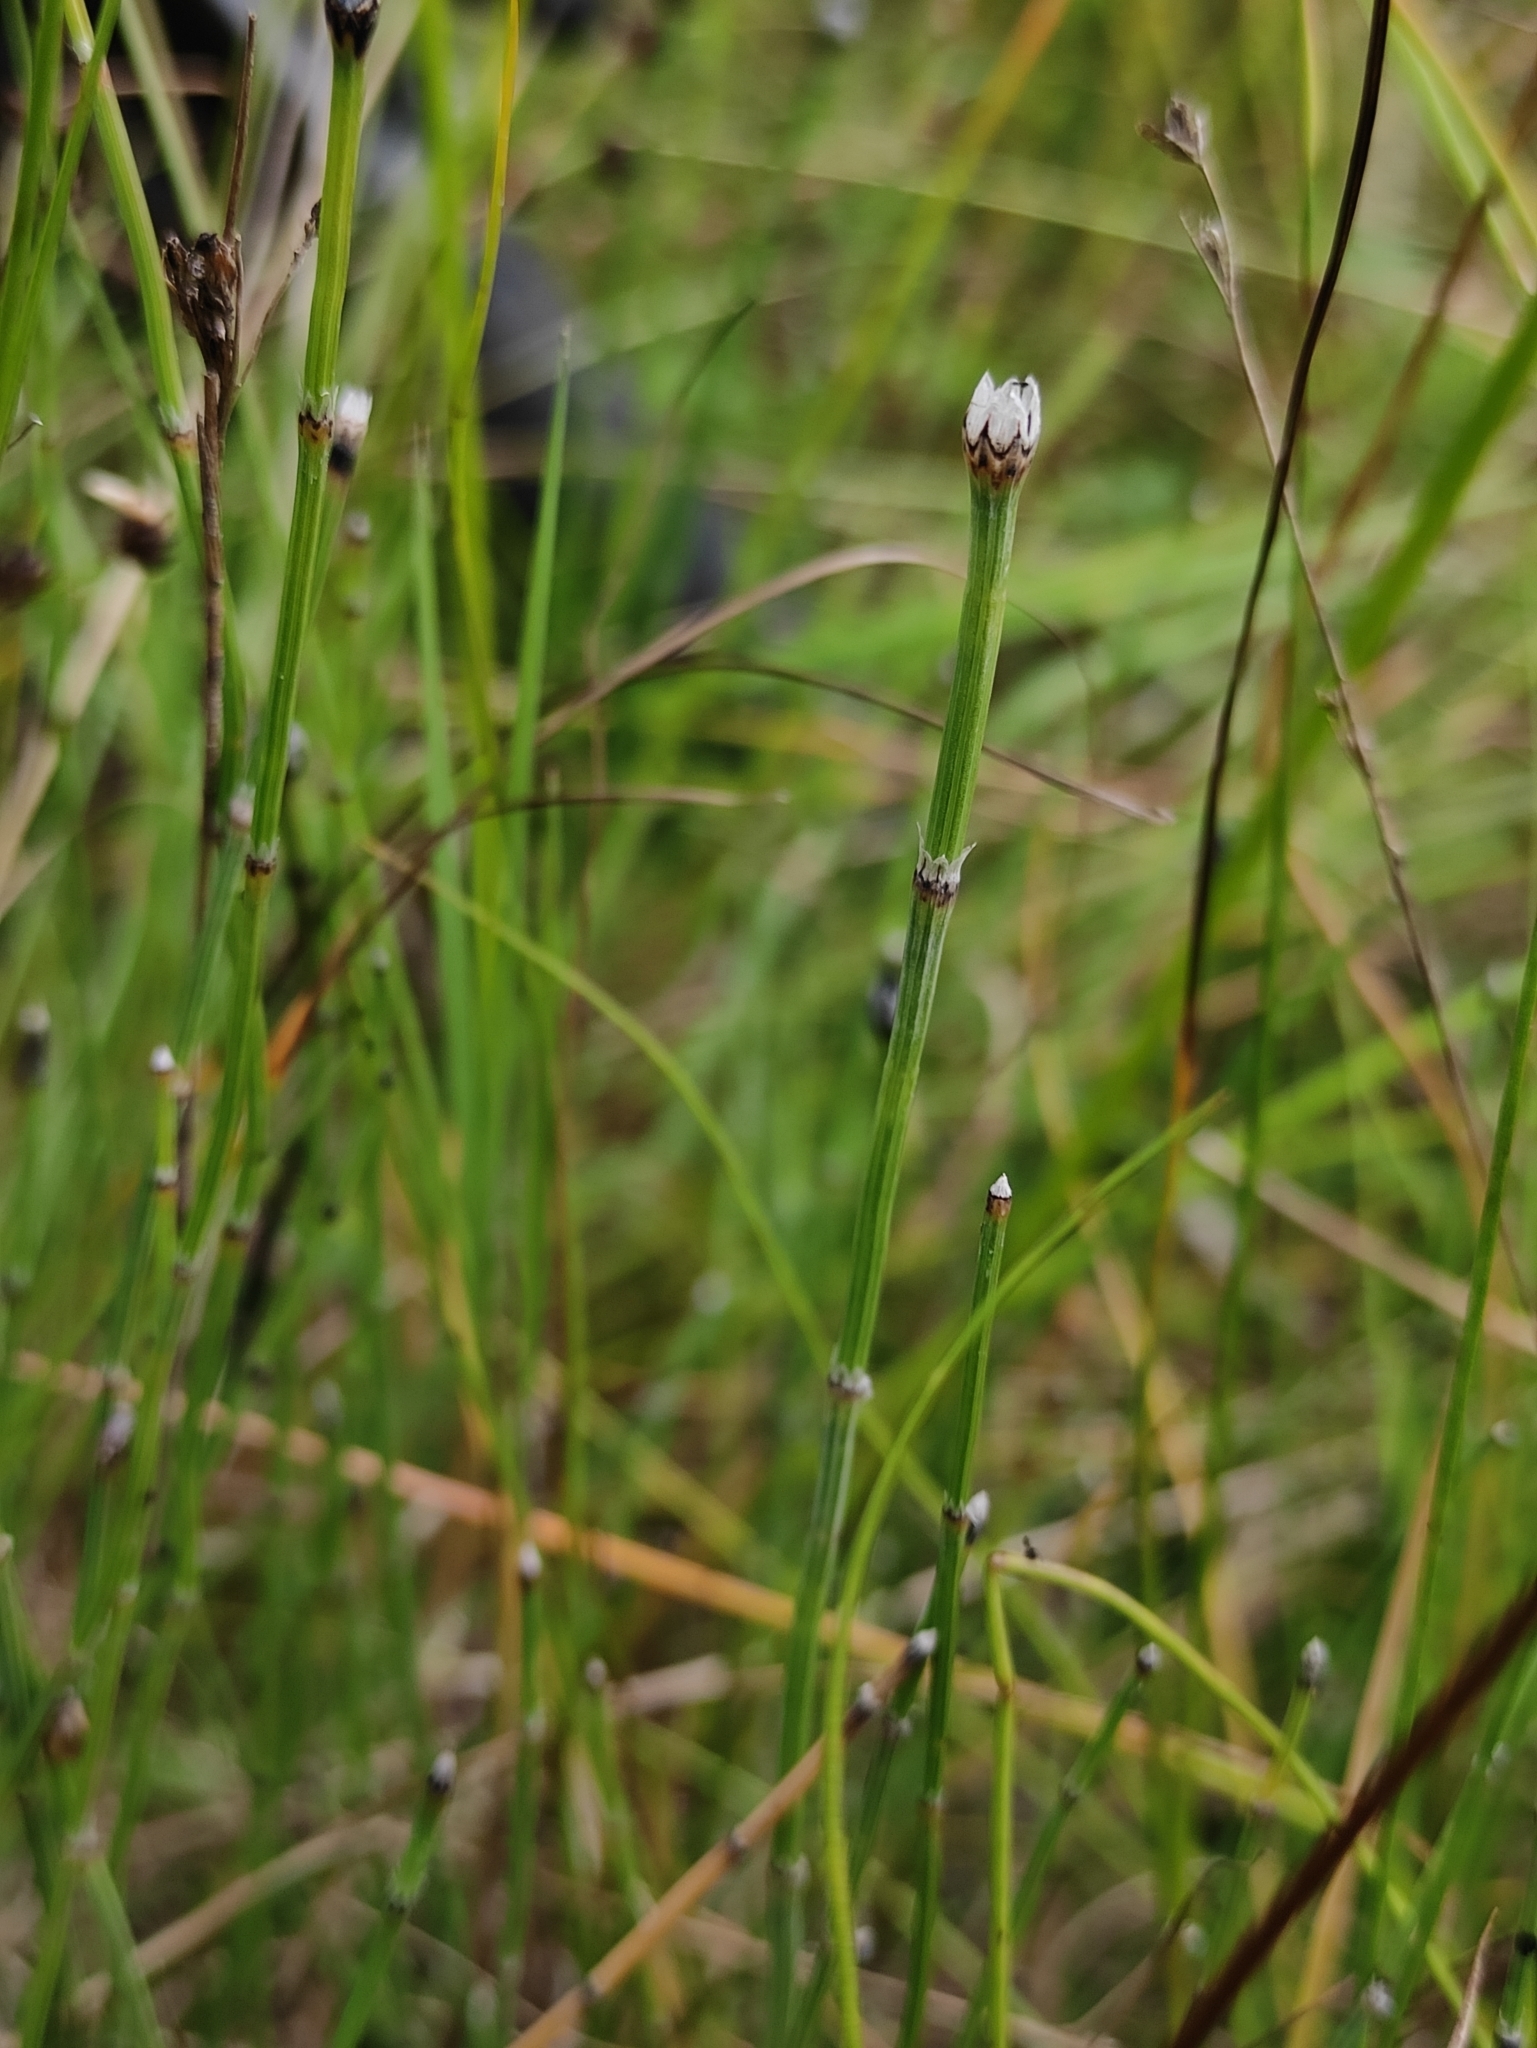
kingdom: Plantae
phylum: Tracheophyta
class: Polypodiopsida
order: Equisetales
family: Equisetaceae
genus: Equisetum
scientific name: Equisetum variegatum
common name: Variegated horsetail
